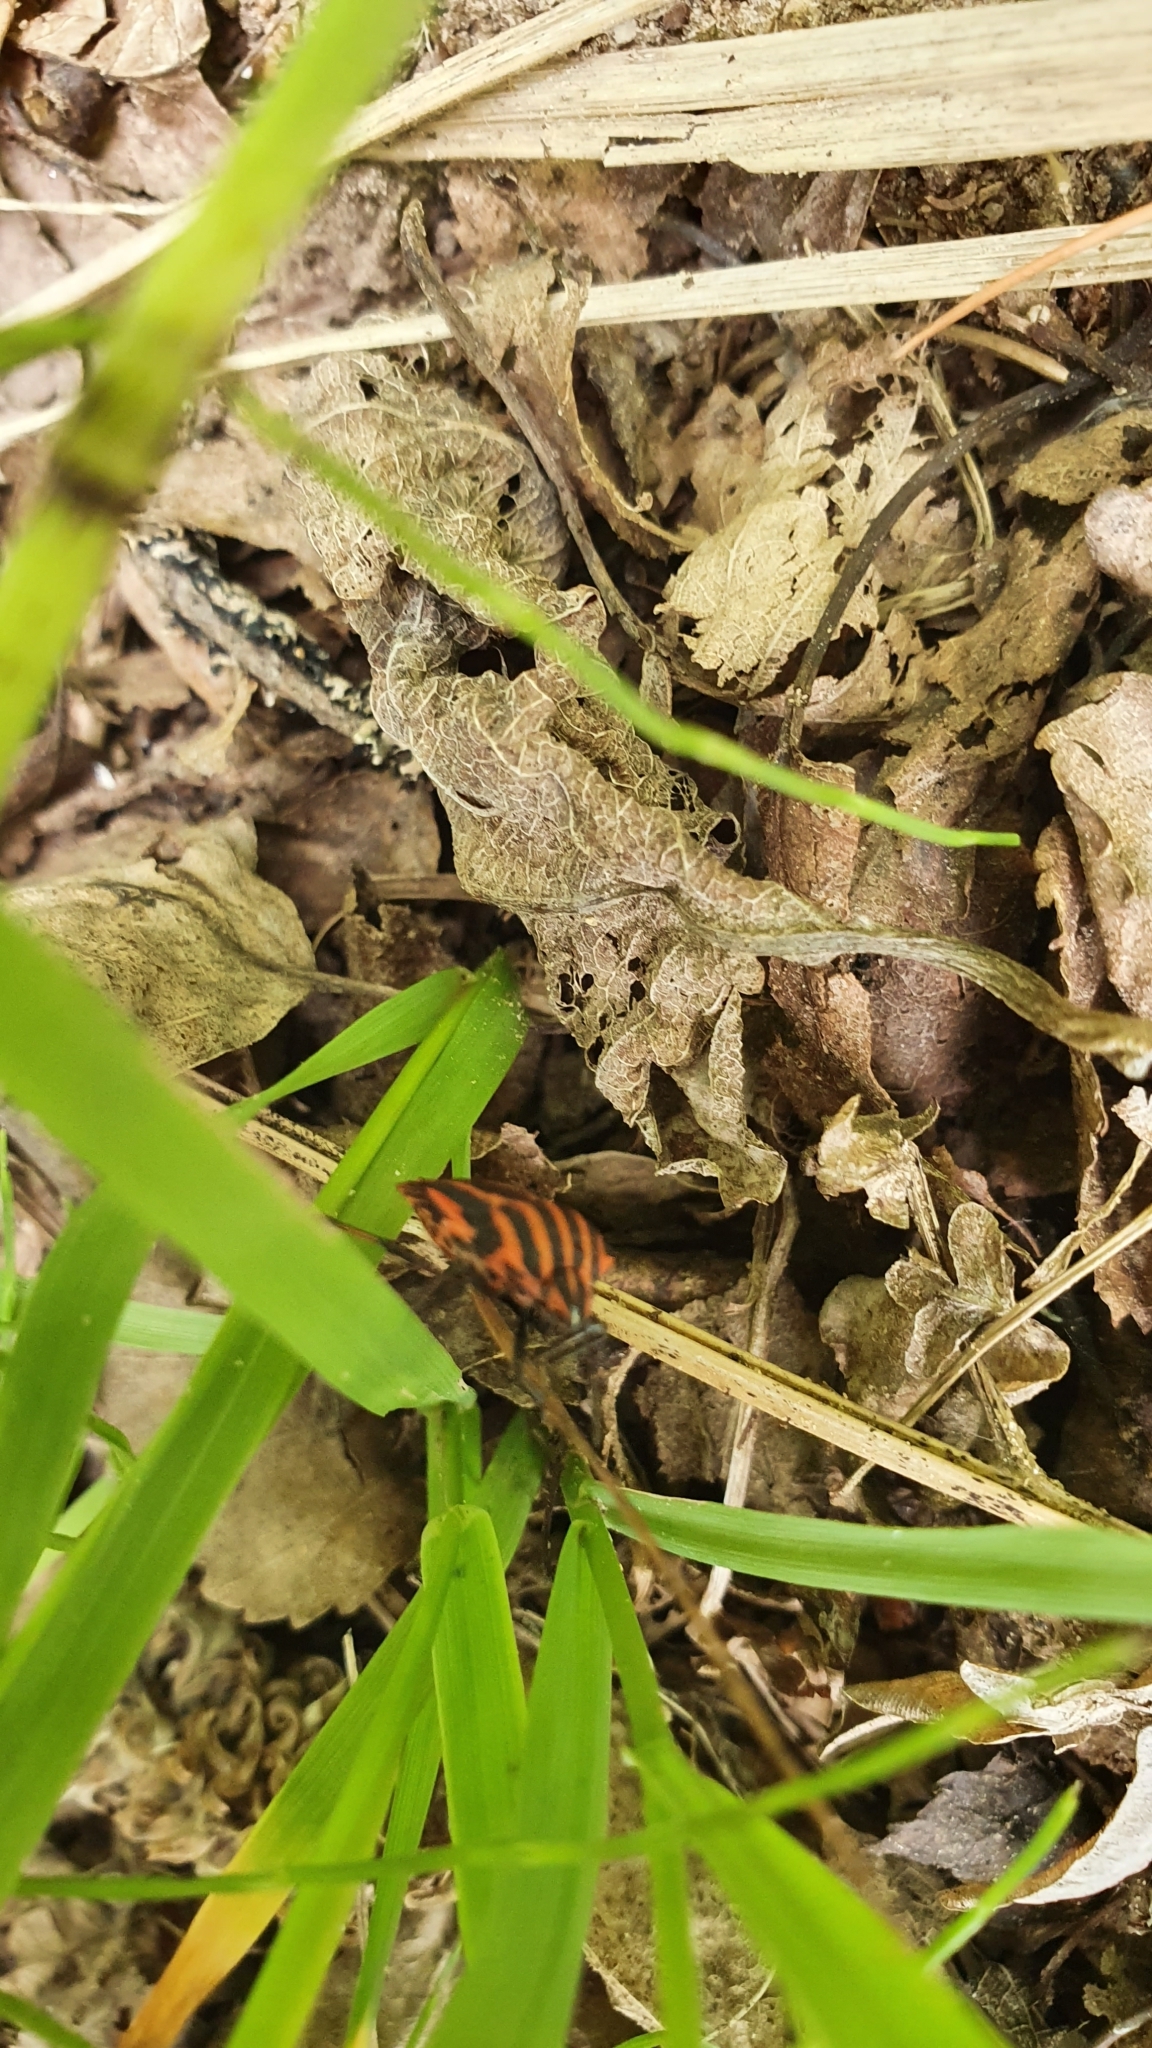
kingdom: Animalia
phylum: Arthropoda
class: Insecta
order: Hemiptera
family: Pentatomidae
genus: Graphosoma
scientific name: Graphosoma italicum
